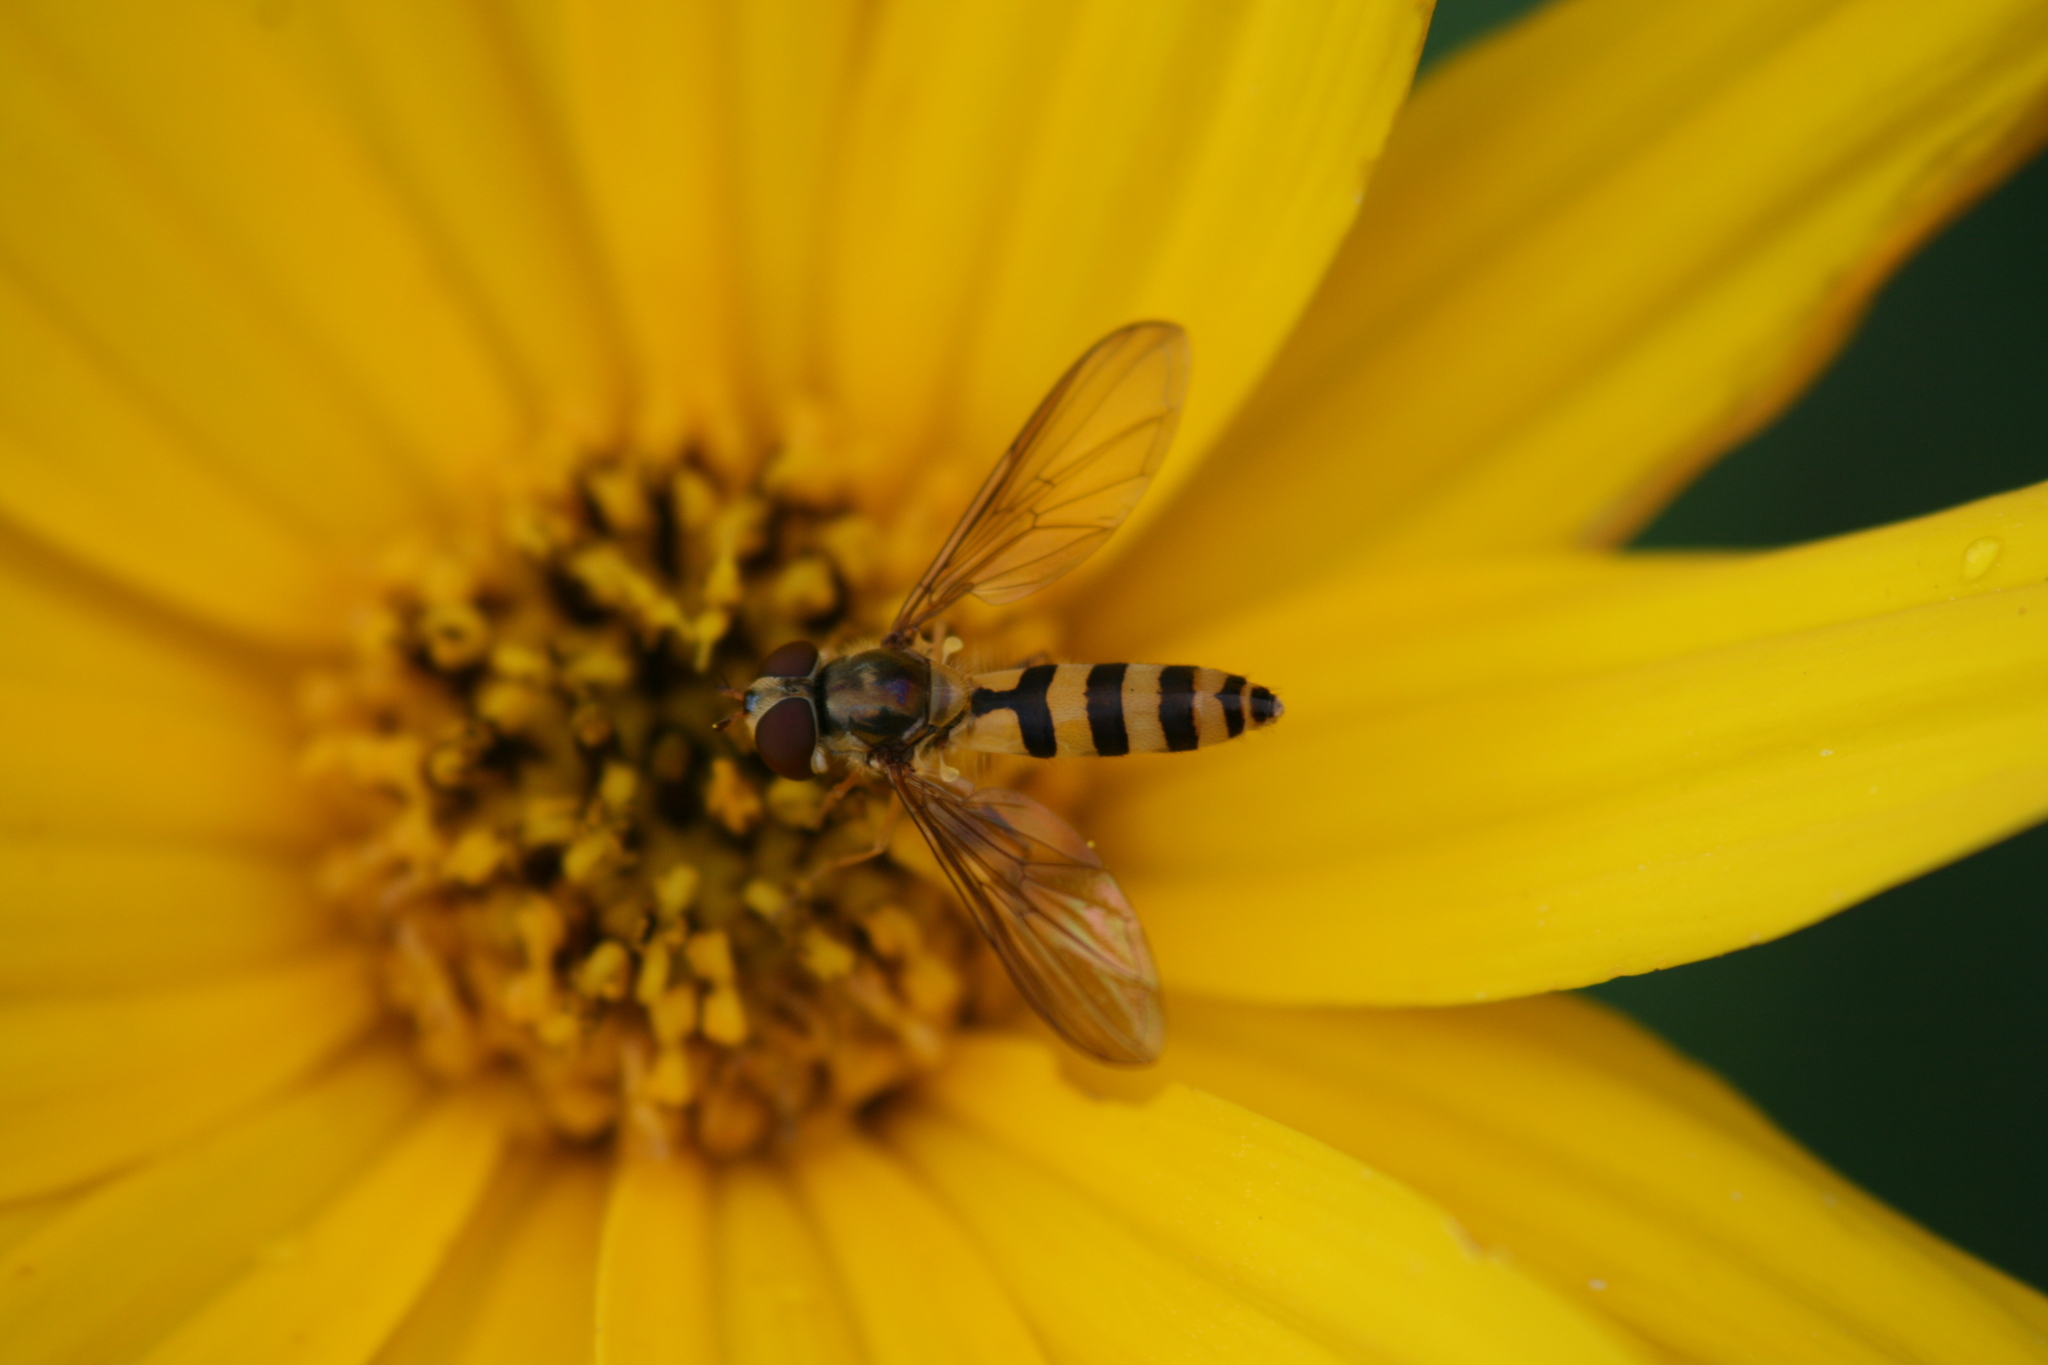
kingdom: Animalia
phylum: Arthropoda
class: Insecta
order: Diptera
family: Syrphidae
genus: Meliscaeva
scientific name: Meliscaeva cinctella
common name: American thintail fly
